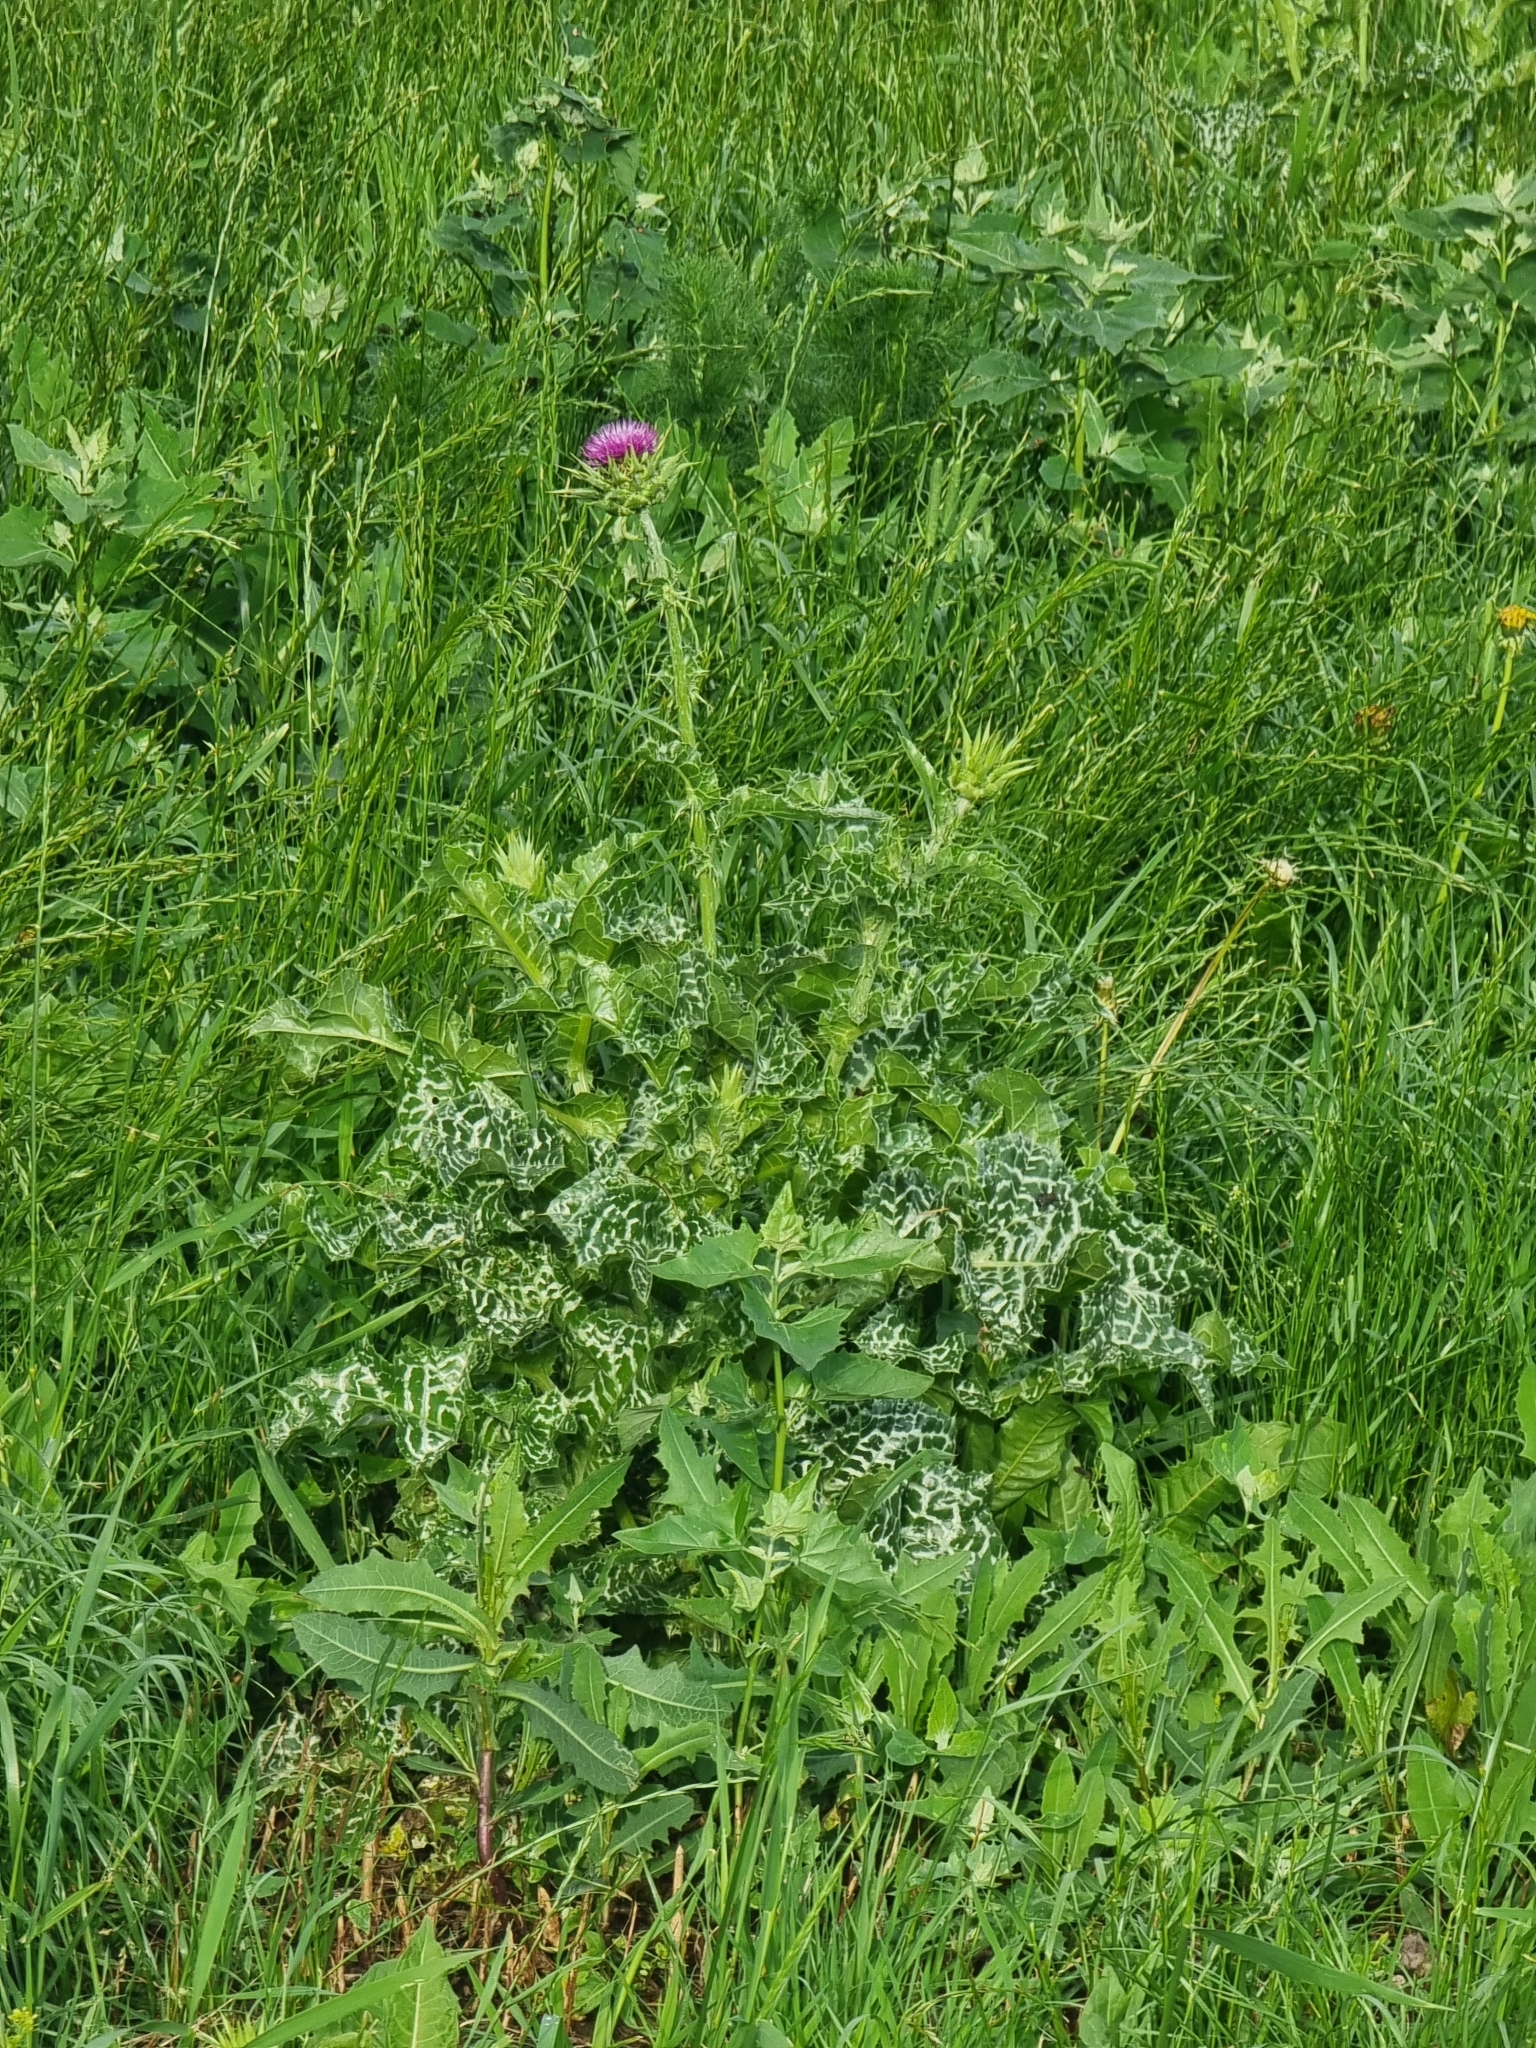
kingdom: Plantae
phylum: Tracheophyta
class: Magnoliopsida
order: Asterales
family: Asteraceae
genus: Silybum
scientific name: Silybum marianum
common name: Milk thistle
